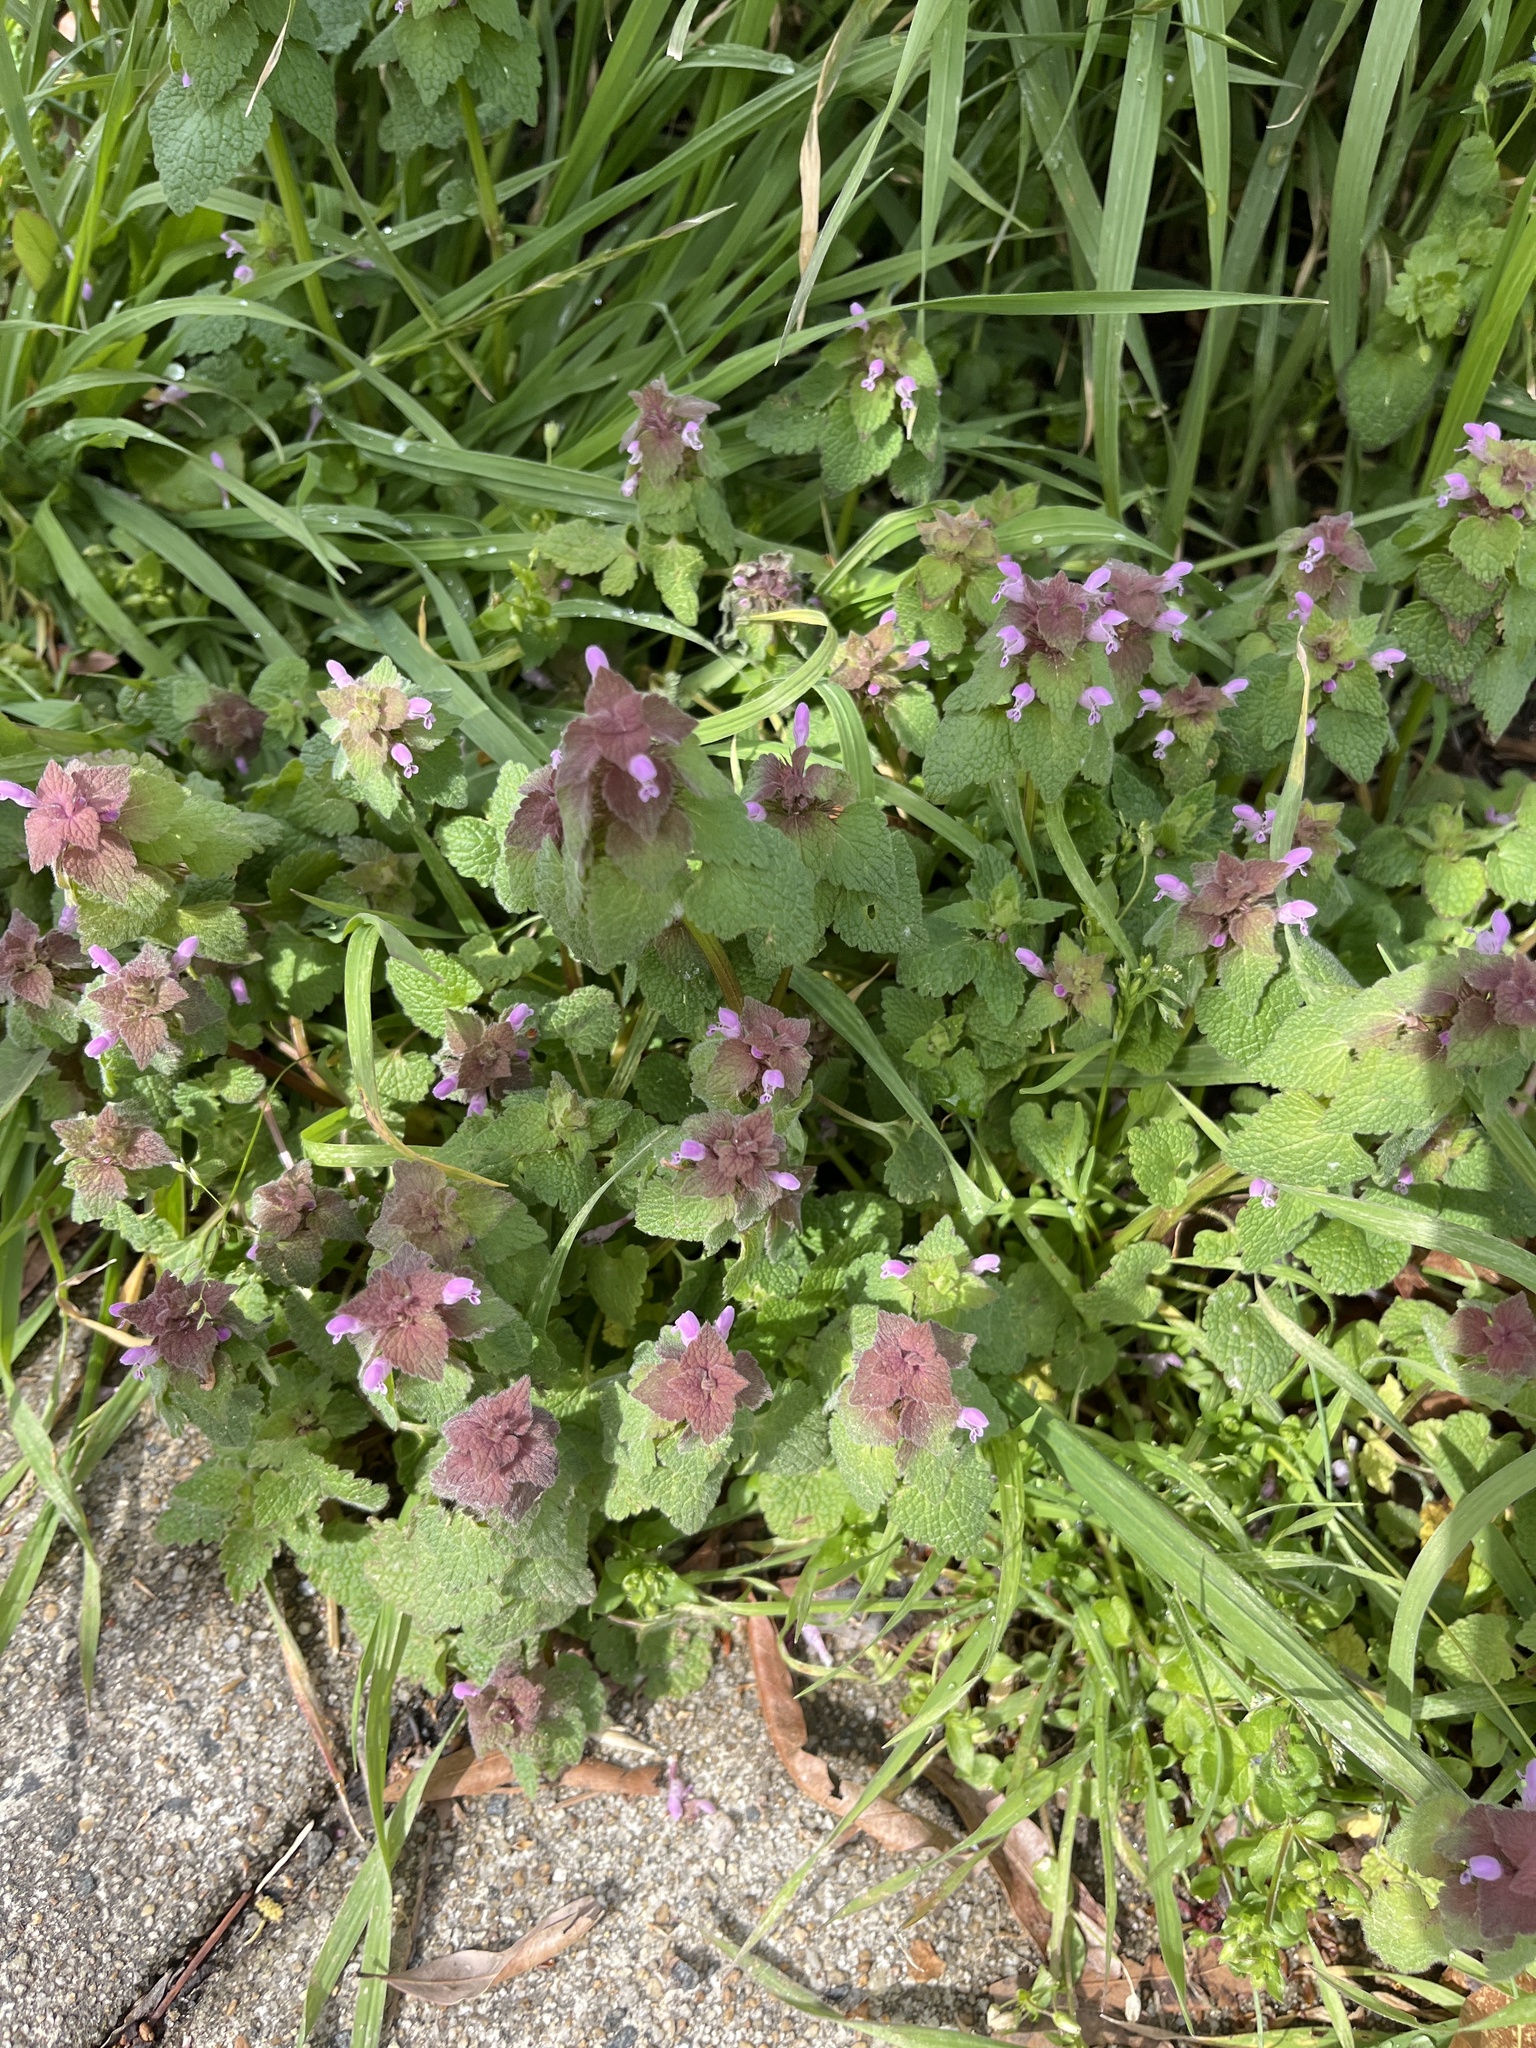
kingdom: Plantae
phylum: Tracheophyta
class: Magnoliopsida
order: Lamiales
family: Lamiaceae
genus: Lamium
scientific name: Lamium purpureum
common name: Red dead-nettle
